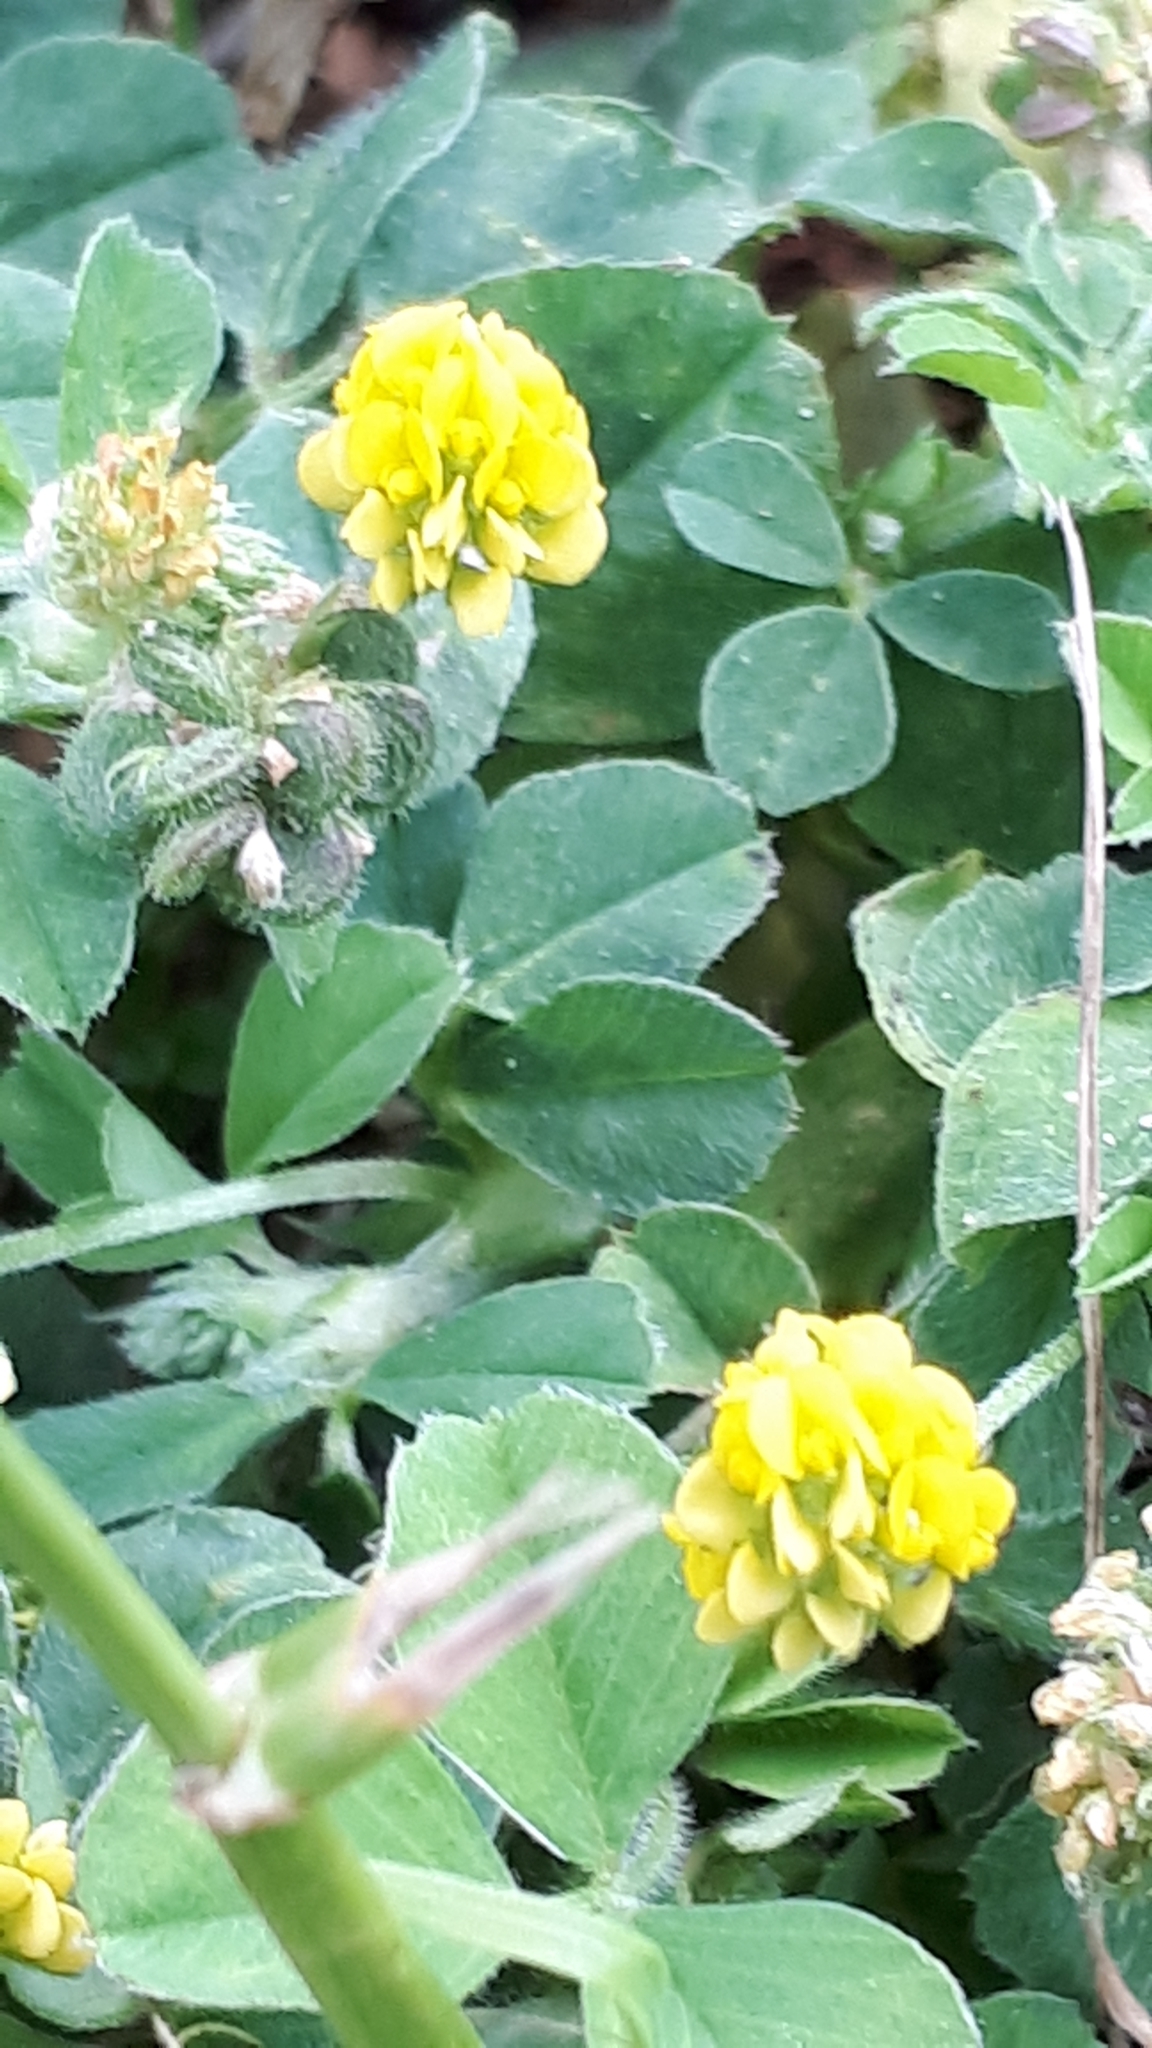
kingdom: Plantae
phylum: Tracheophyta
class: Magnoliopsida
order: Fabales
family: Fabaceae
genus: Medicago
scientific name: Medicago lupulina
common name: Black medick
